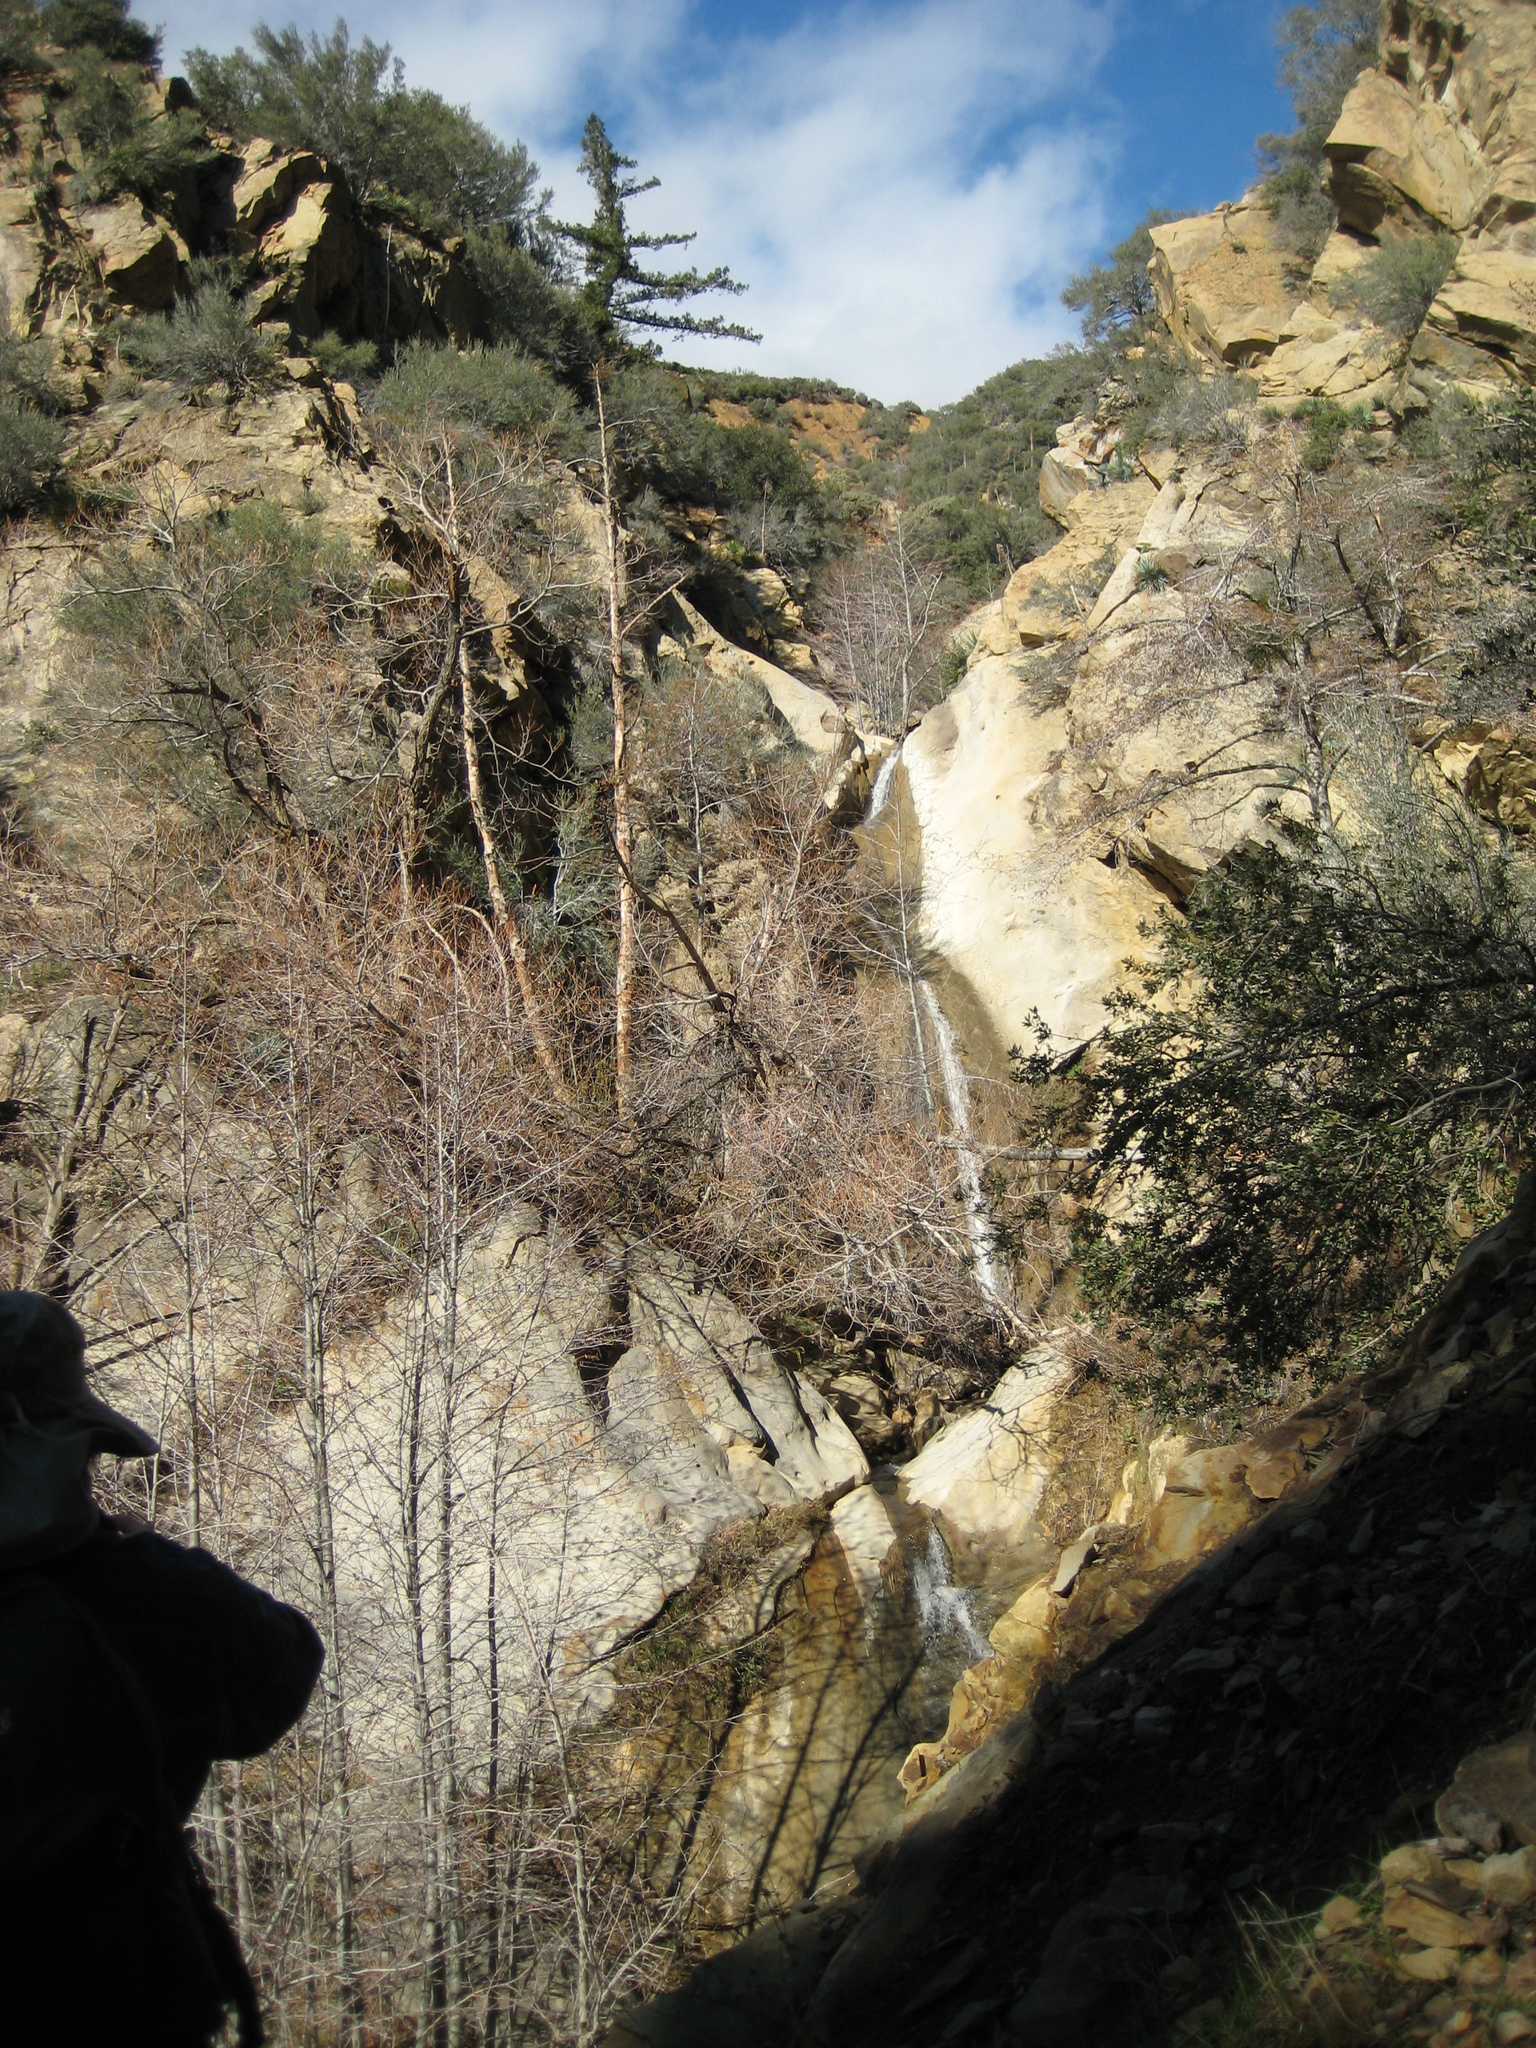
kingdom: Plantae
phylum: Tracheophyta
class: Pinopsida
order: Pinales
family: Pinaceae
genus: Pseudotsuga
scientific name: Pseudotsuga macrocarpa
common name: Big-cone douglas-fir
